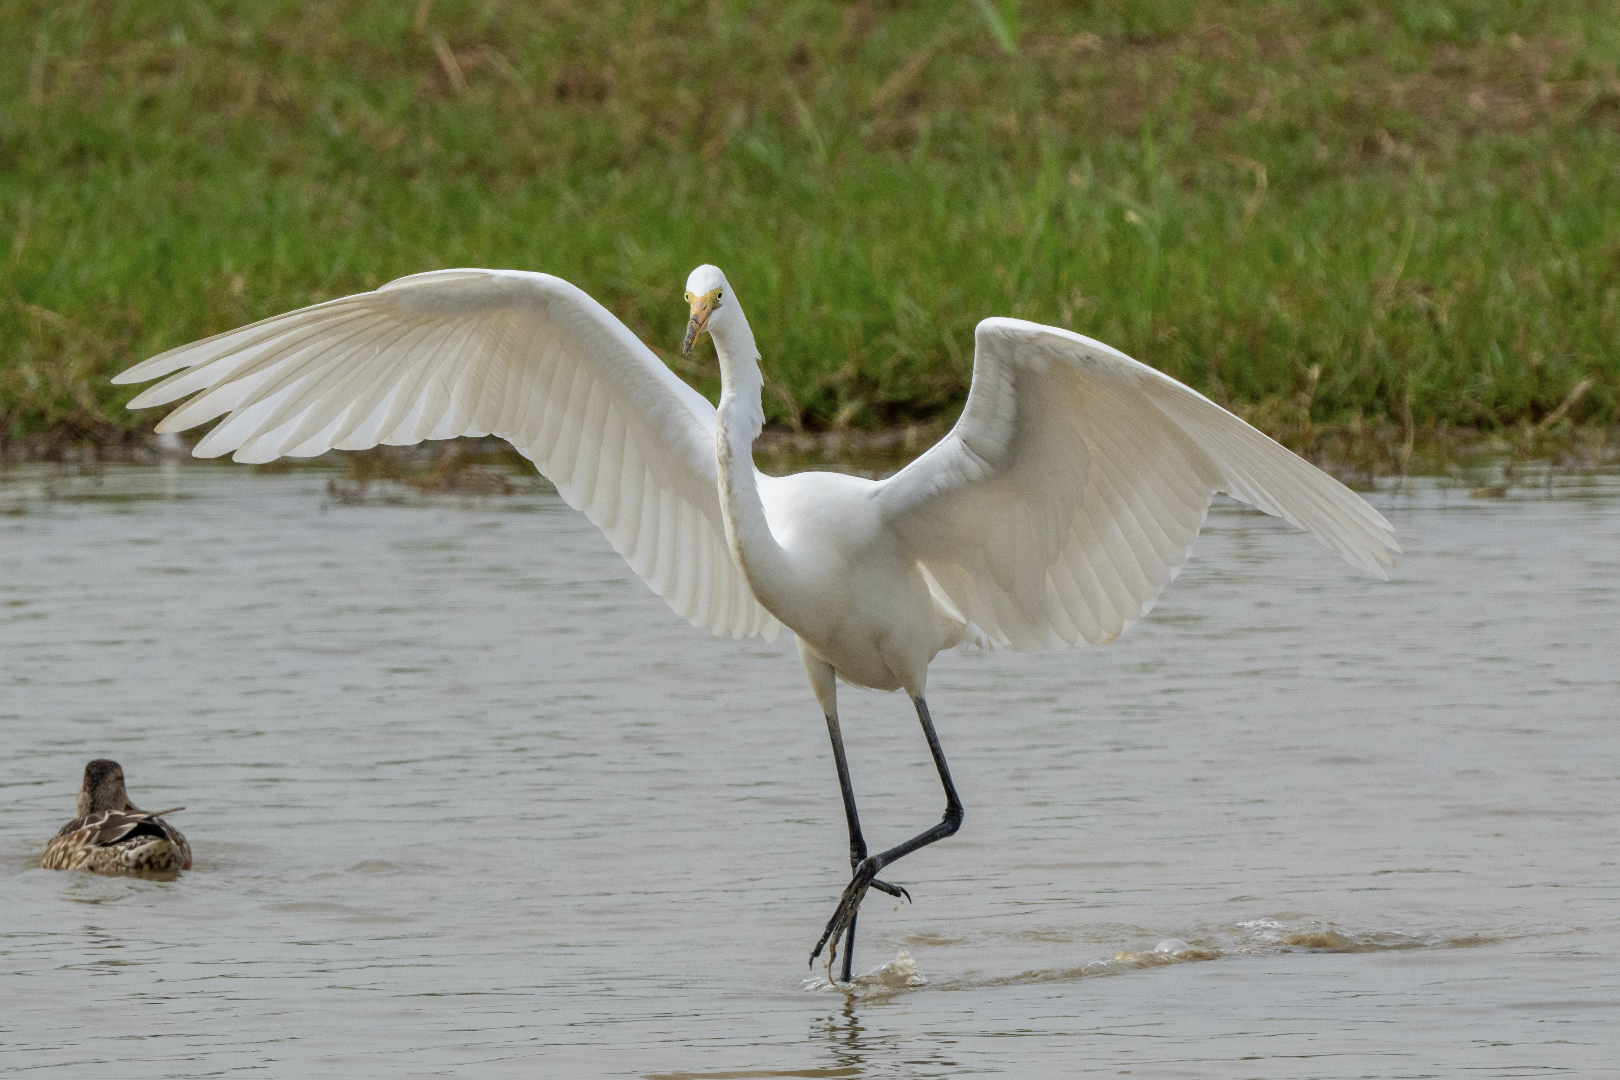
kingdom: Animalia
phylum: Chordata
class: Aves
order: Pelecaniformes
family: Ardeidae
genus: Ardea
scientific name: Ardea alba
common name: Great egret
